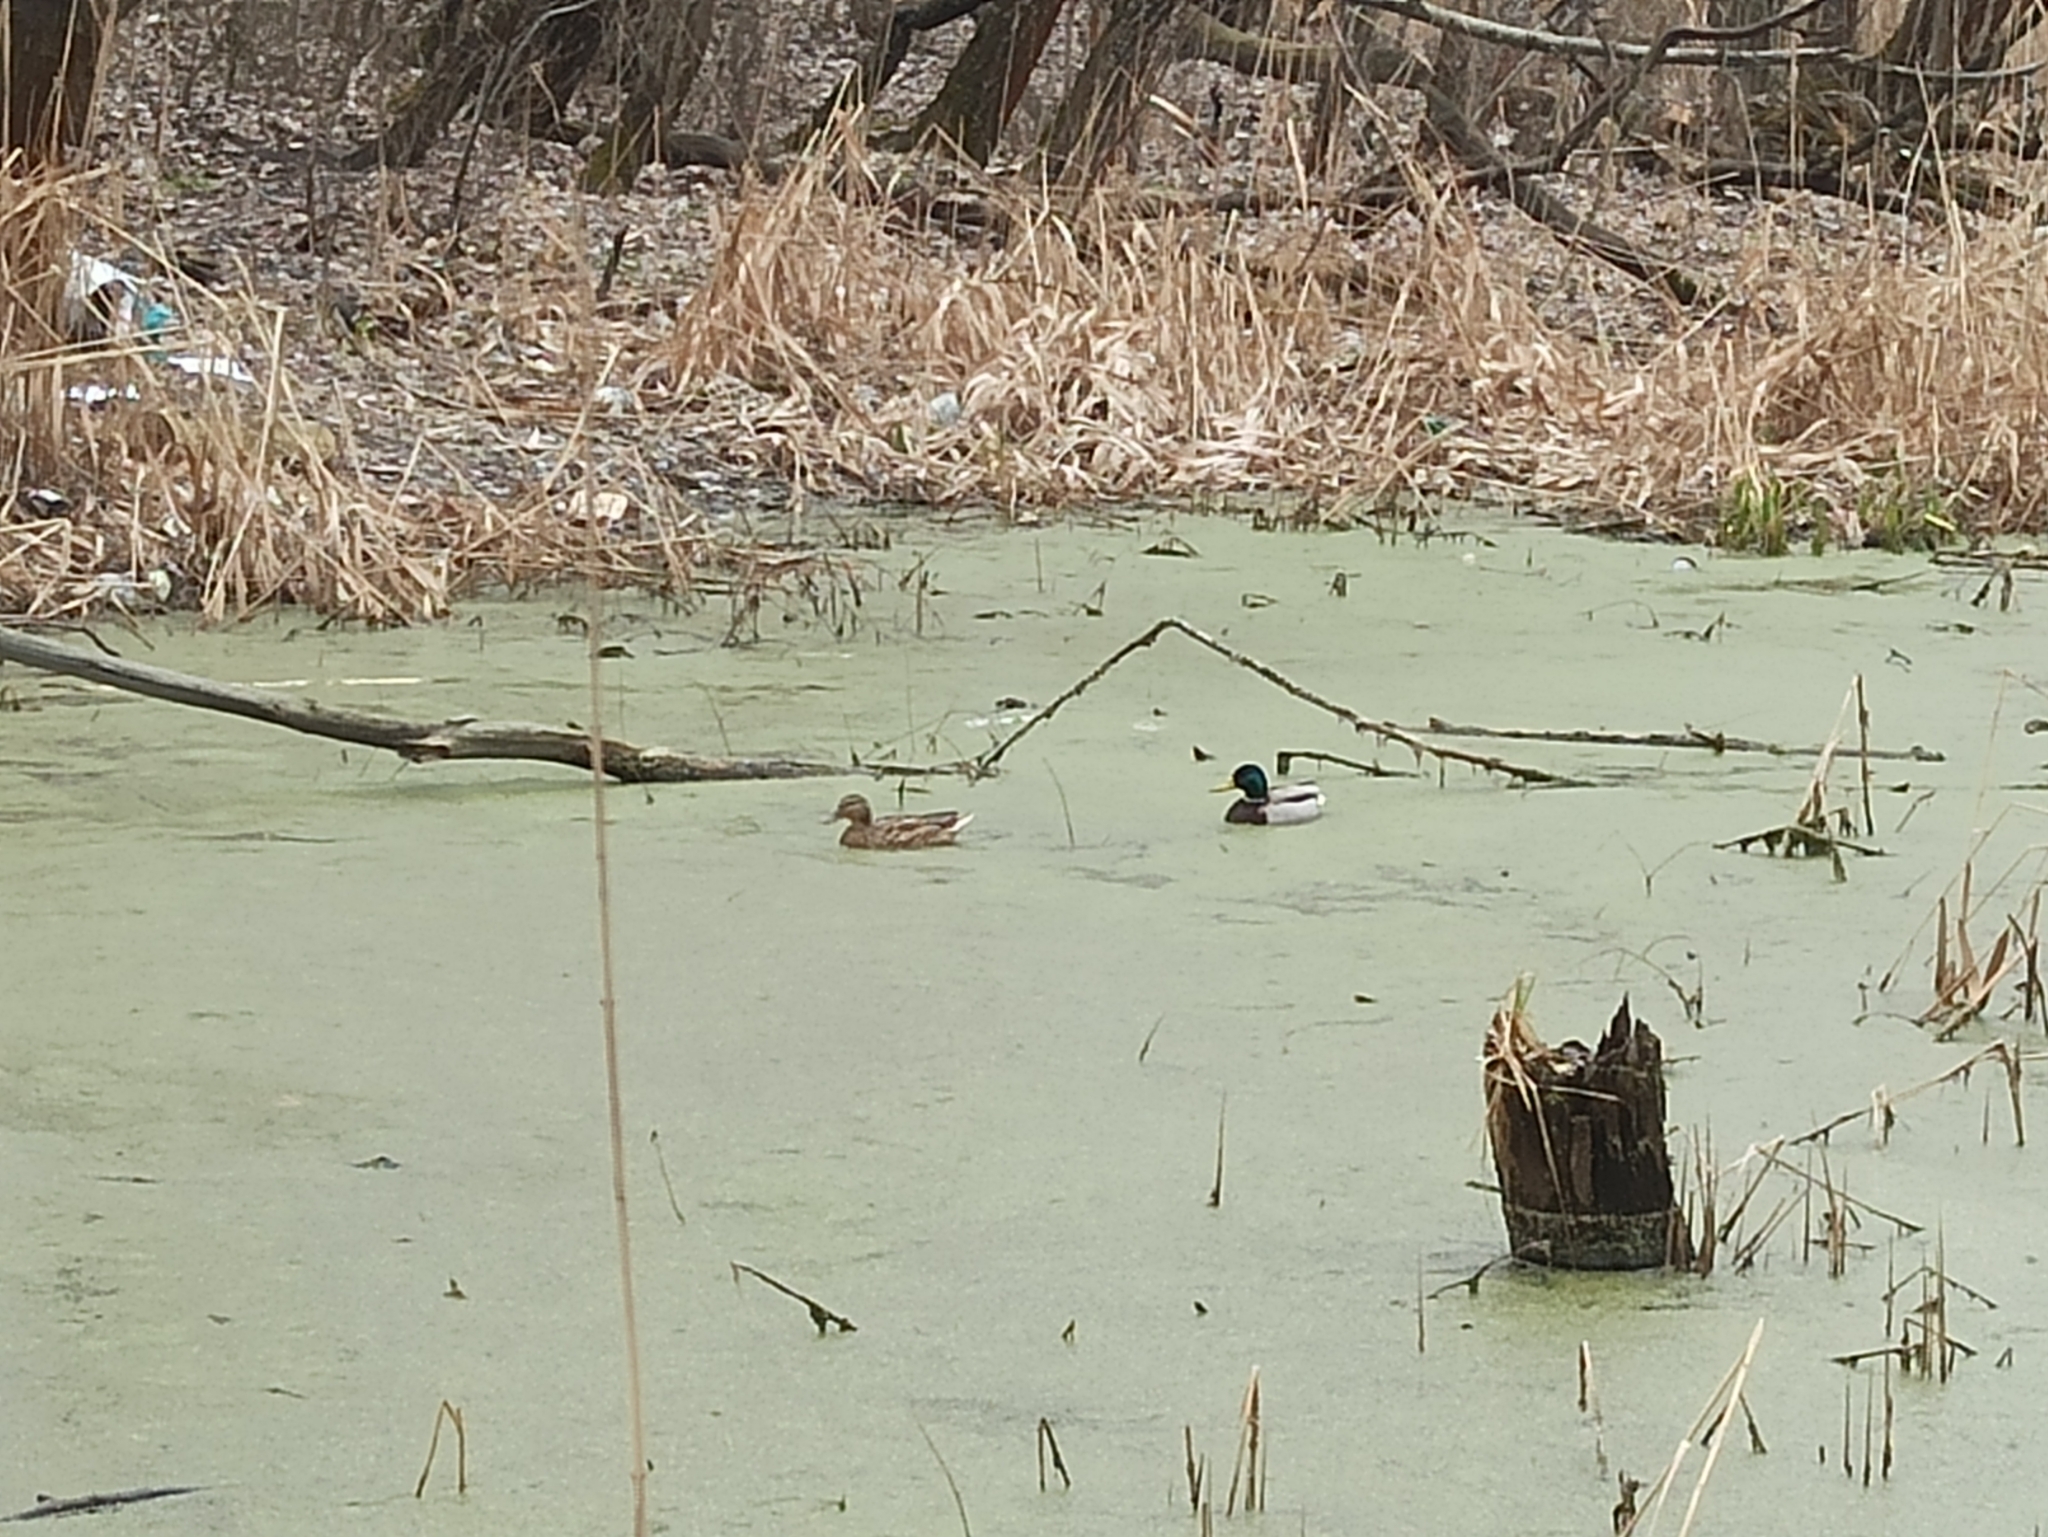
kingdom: Animalia
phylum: Chordata
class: Aves
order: Anseriformes
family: Anatidae
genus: Anas
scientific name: Anas platyrhynchos
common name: Mallard
